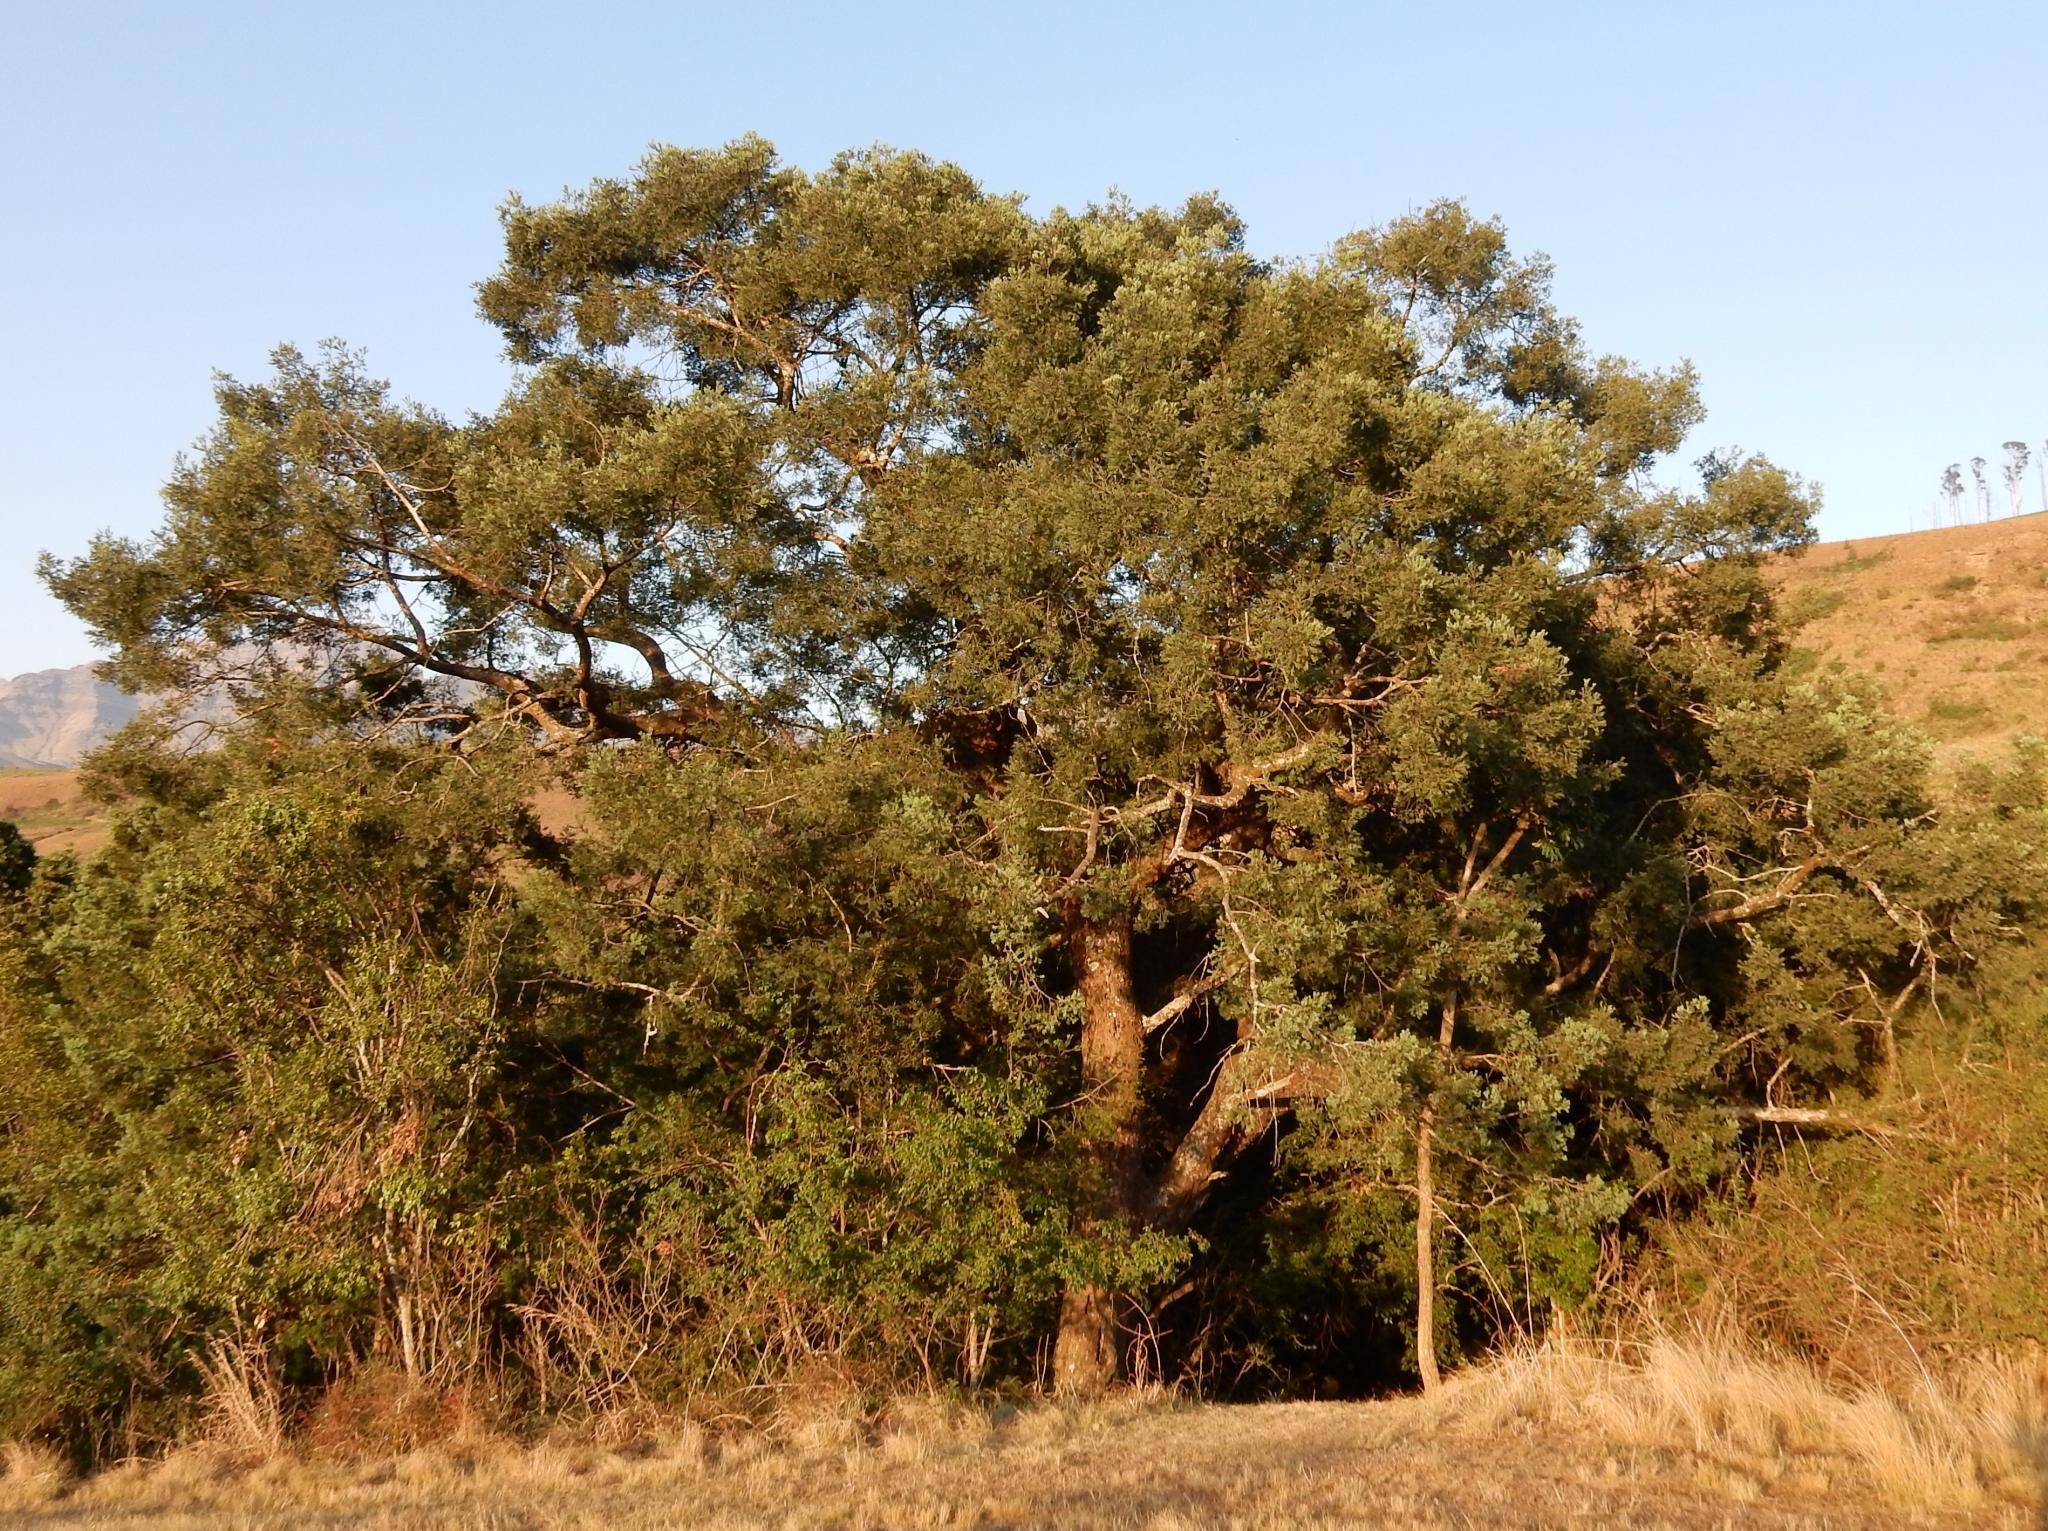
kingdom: Plantae
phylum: Tracheophyta
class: Pinopsida
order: Pinales
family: Podocarpaceae
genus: Afrocarpus
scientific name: Afrocarpus falcatus
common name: Bastard yellowwood
